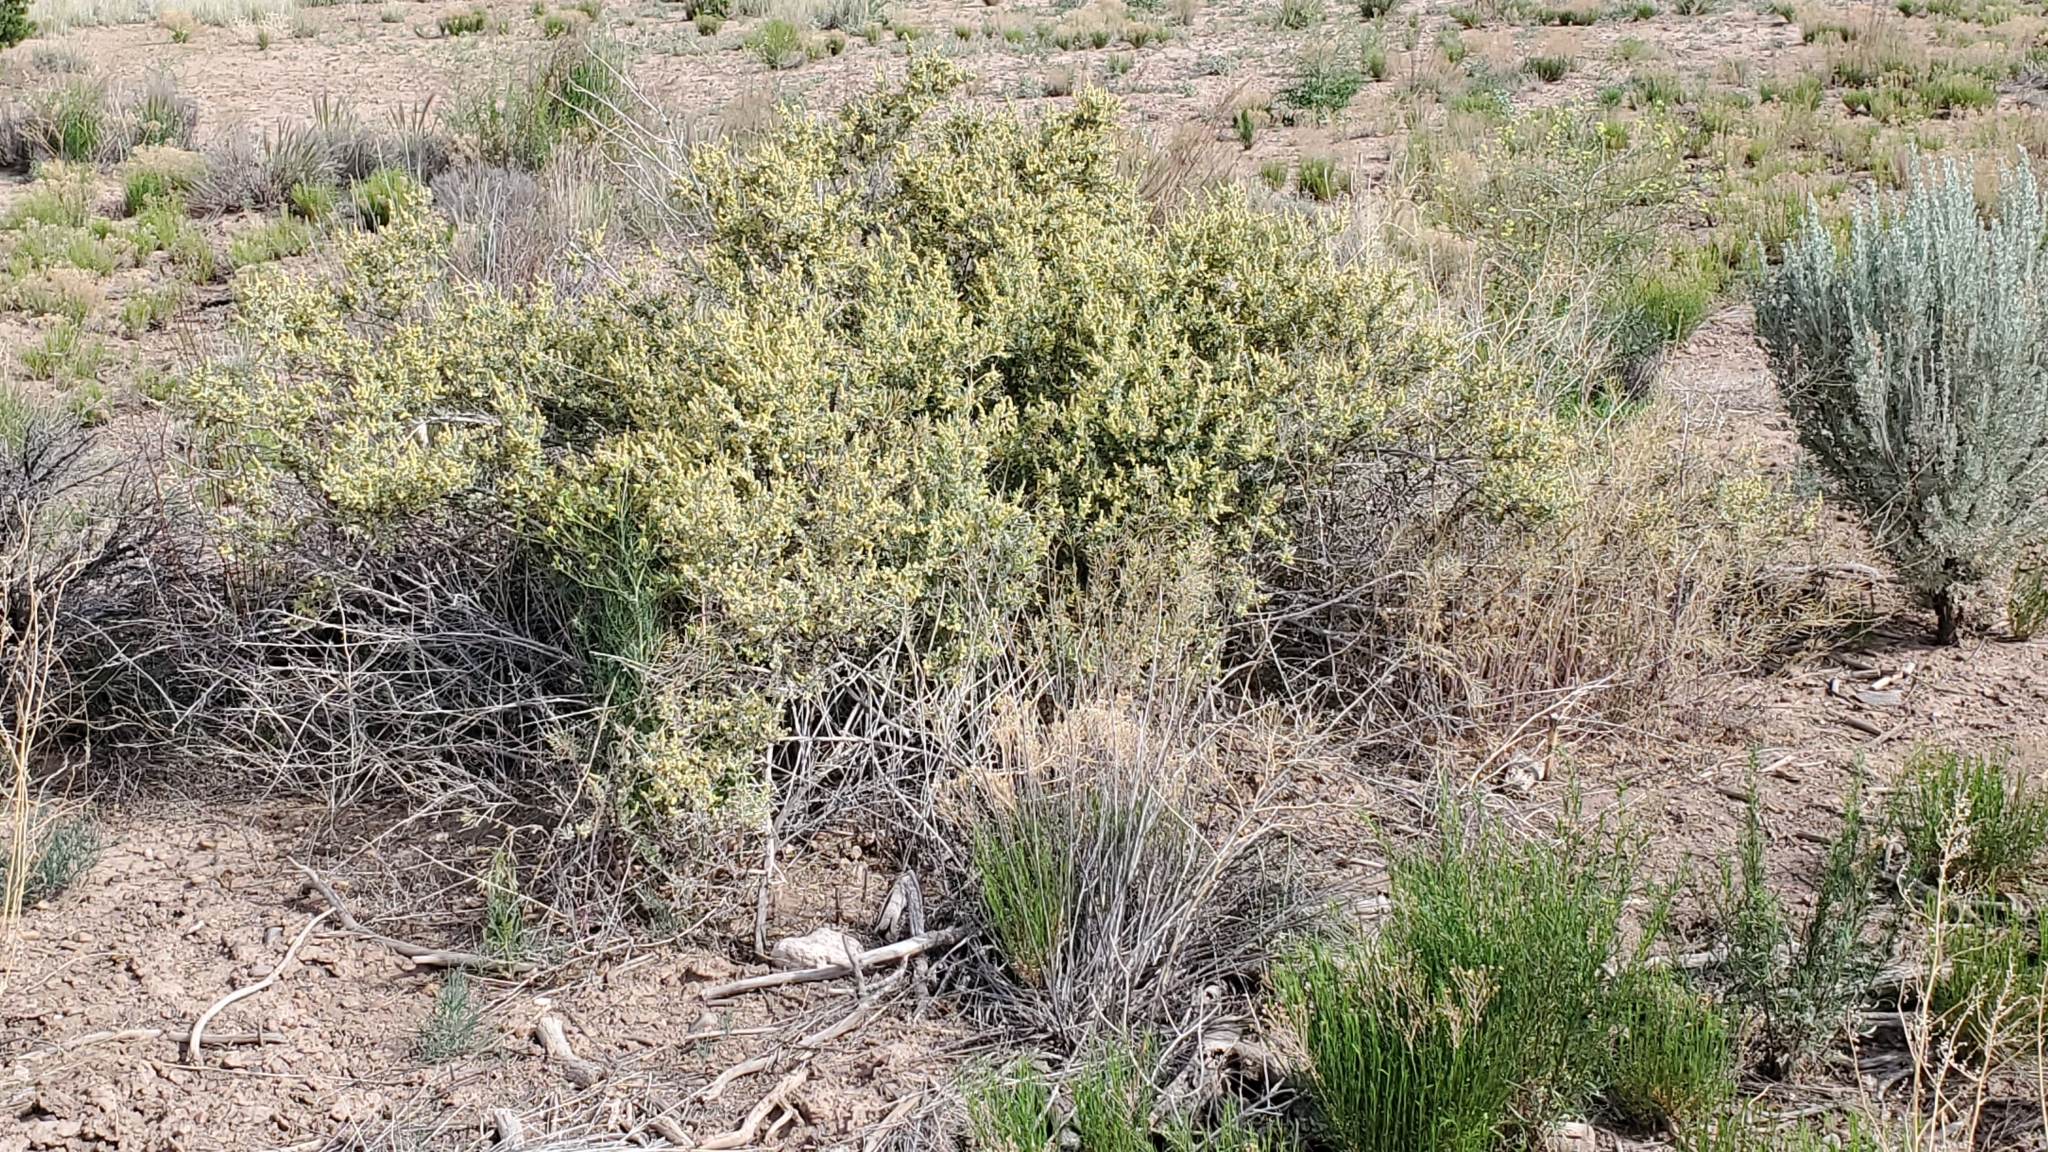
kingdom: Plantae
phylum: Tracheophyta
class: Magnoliopsida
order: Caryophyllales
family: Amaranthaceae
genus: Atriplex
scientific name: Atriplex canescens
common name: Four-wing saltbush
